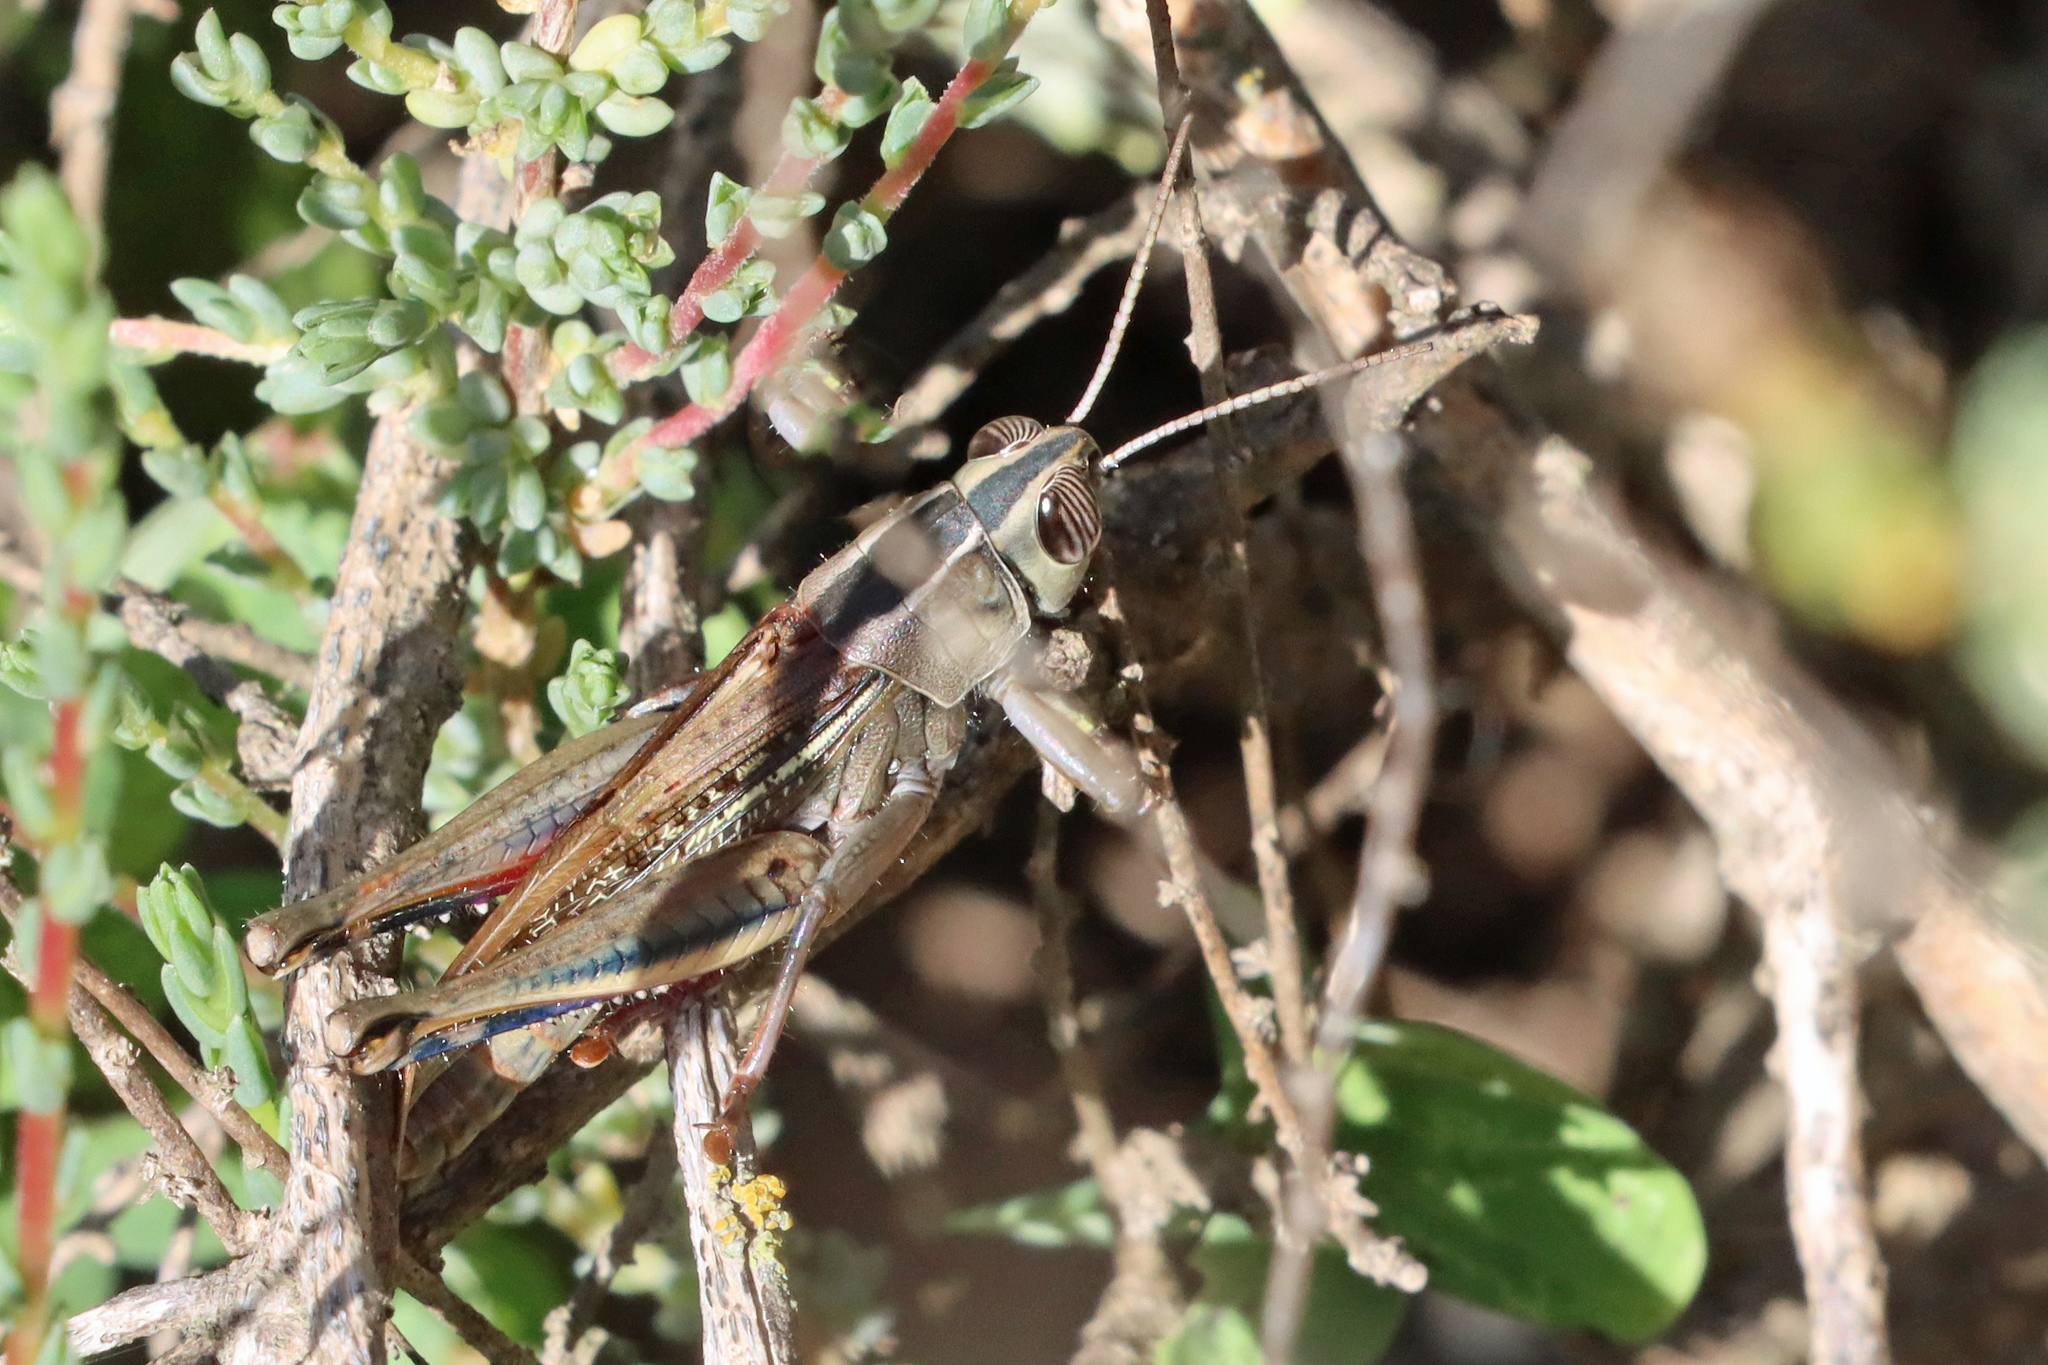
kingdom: Animalia
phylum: Arthropoda
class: Insecta
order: Orthoptera
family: Acrididae
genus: Eyprepocnemis
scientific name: Eyprepocnemis plorans
